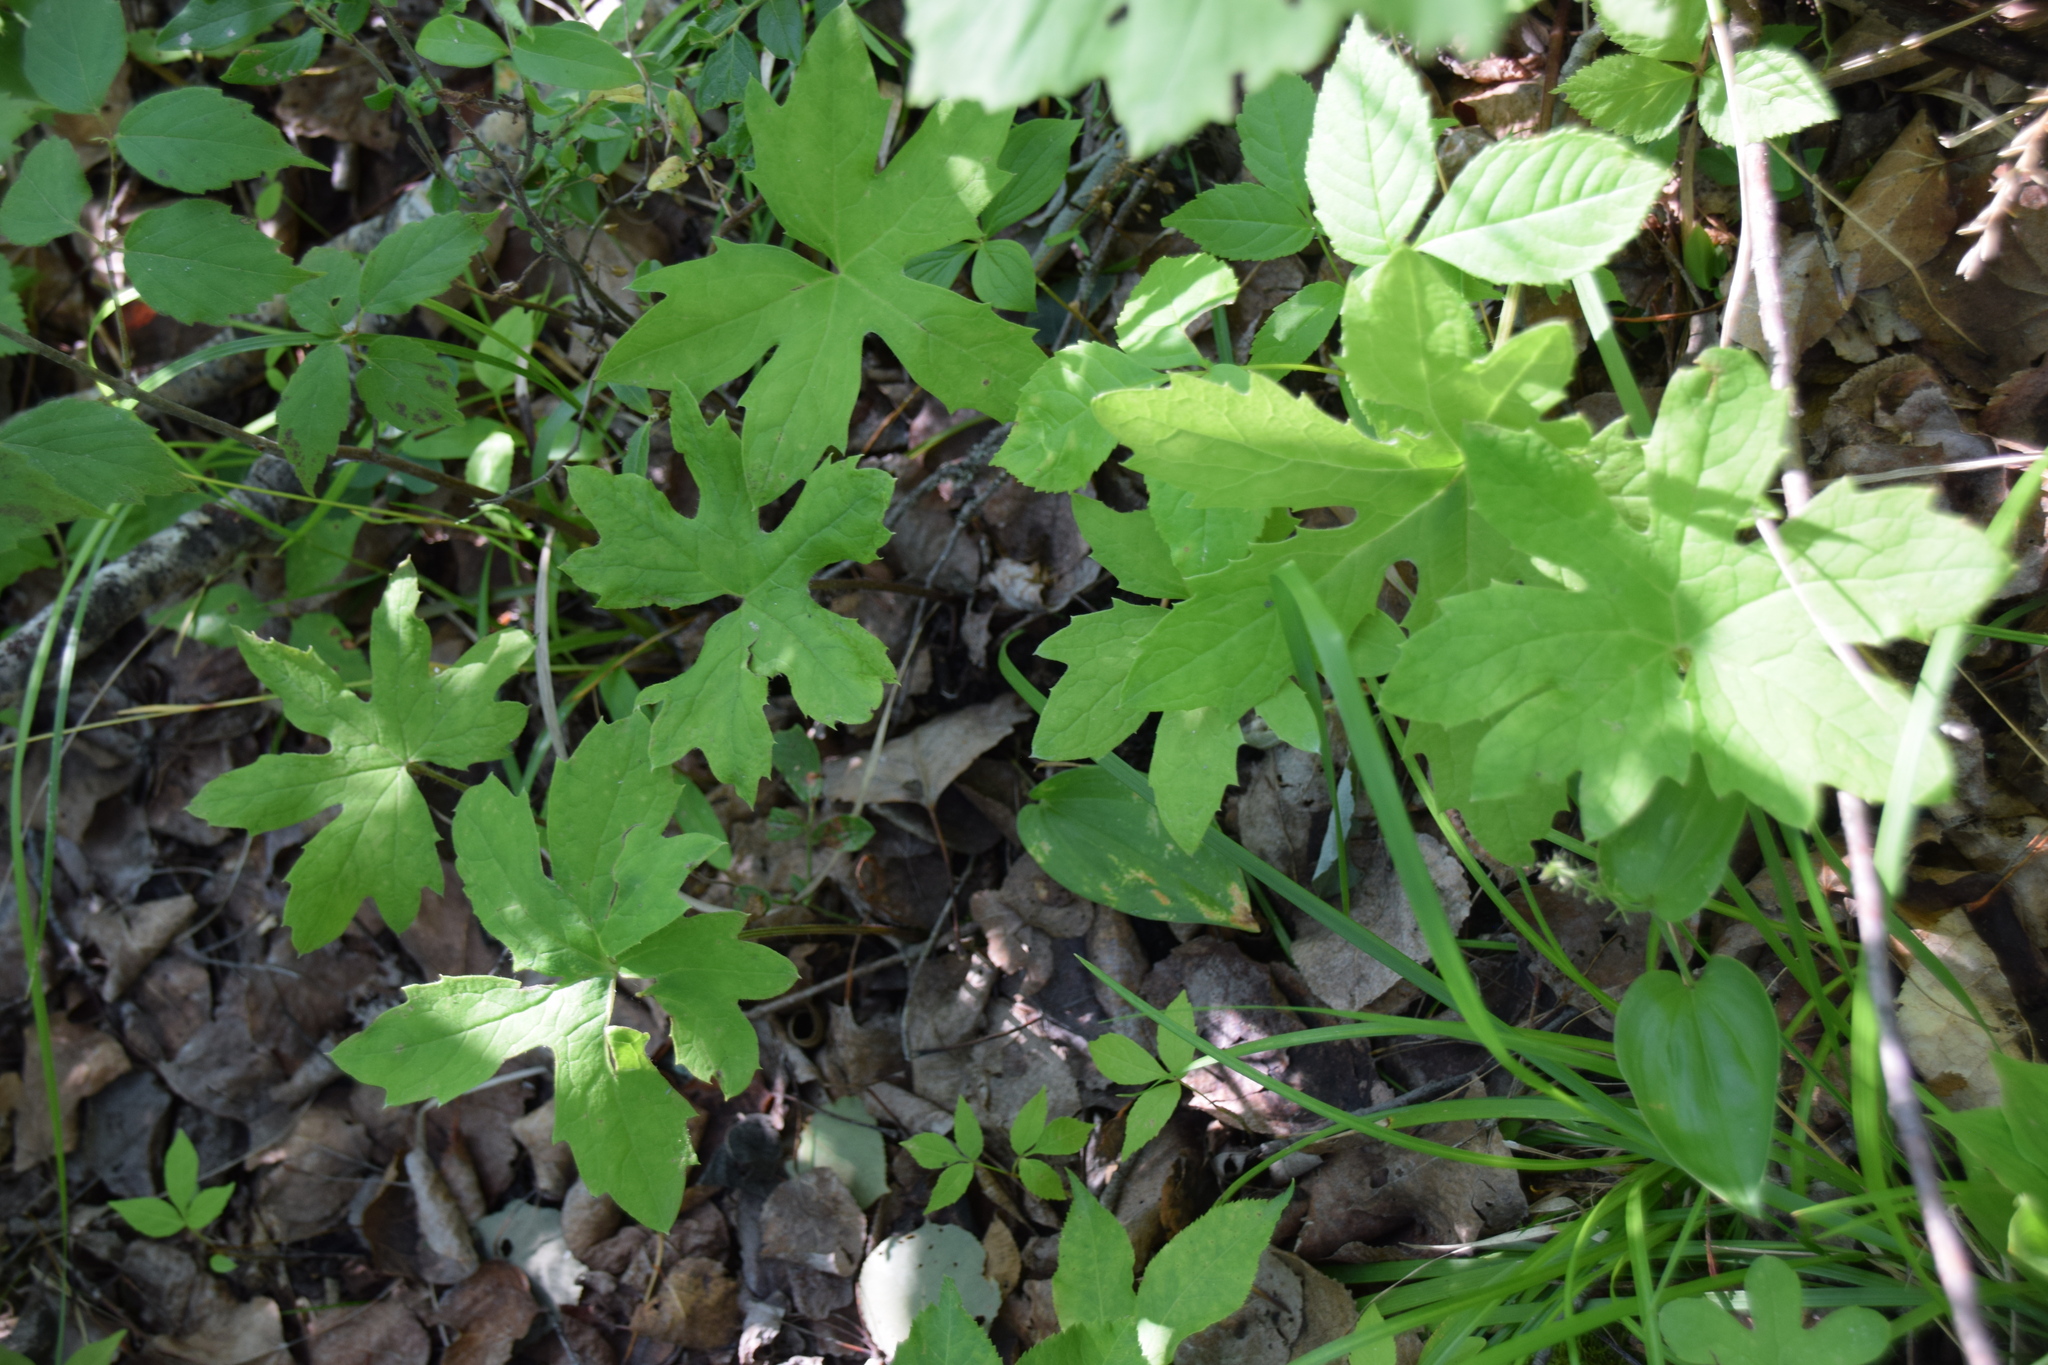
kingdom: Plantae
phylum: Tracheophyta
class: Magnoliopsida
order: Asterales
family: Asteraceae
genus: Petasites
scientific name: Petasites frigidus
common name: Arctic butterbur
